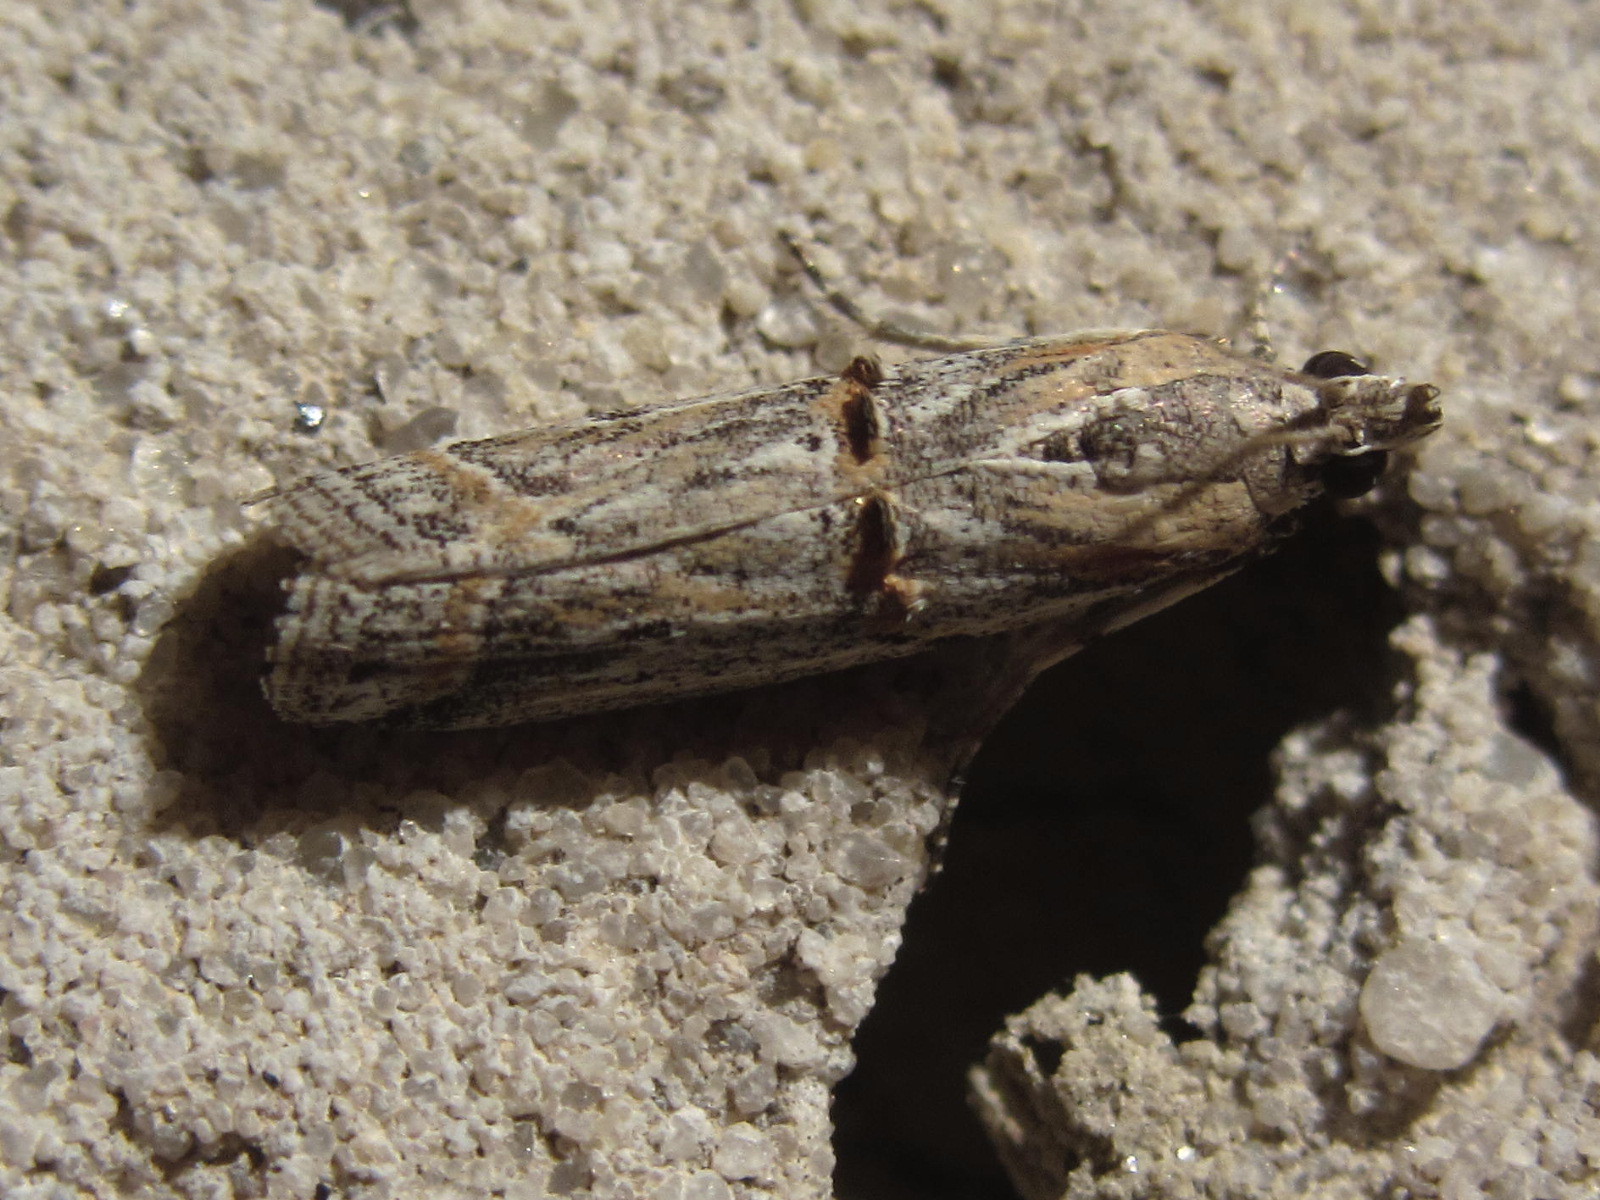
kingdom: Animalia
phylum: Arthropoda
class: Insecta
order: Lepidoptera
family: Pyralidae
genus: Psorosa
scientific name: Psorosa strictella
